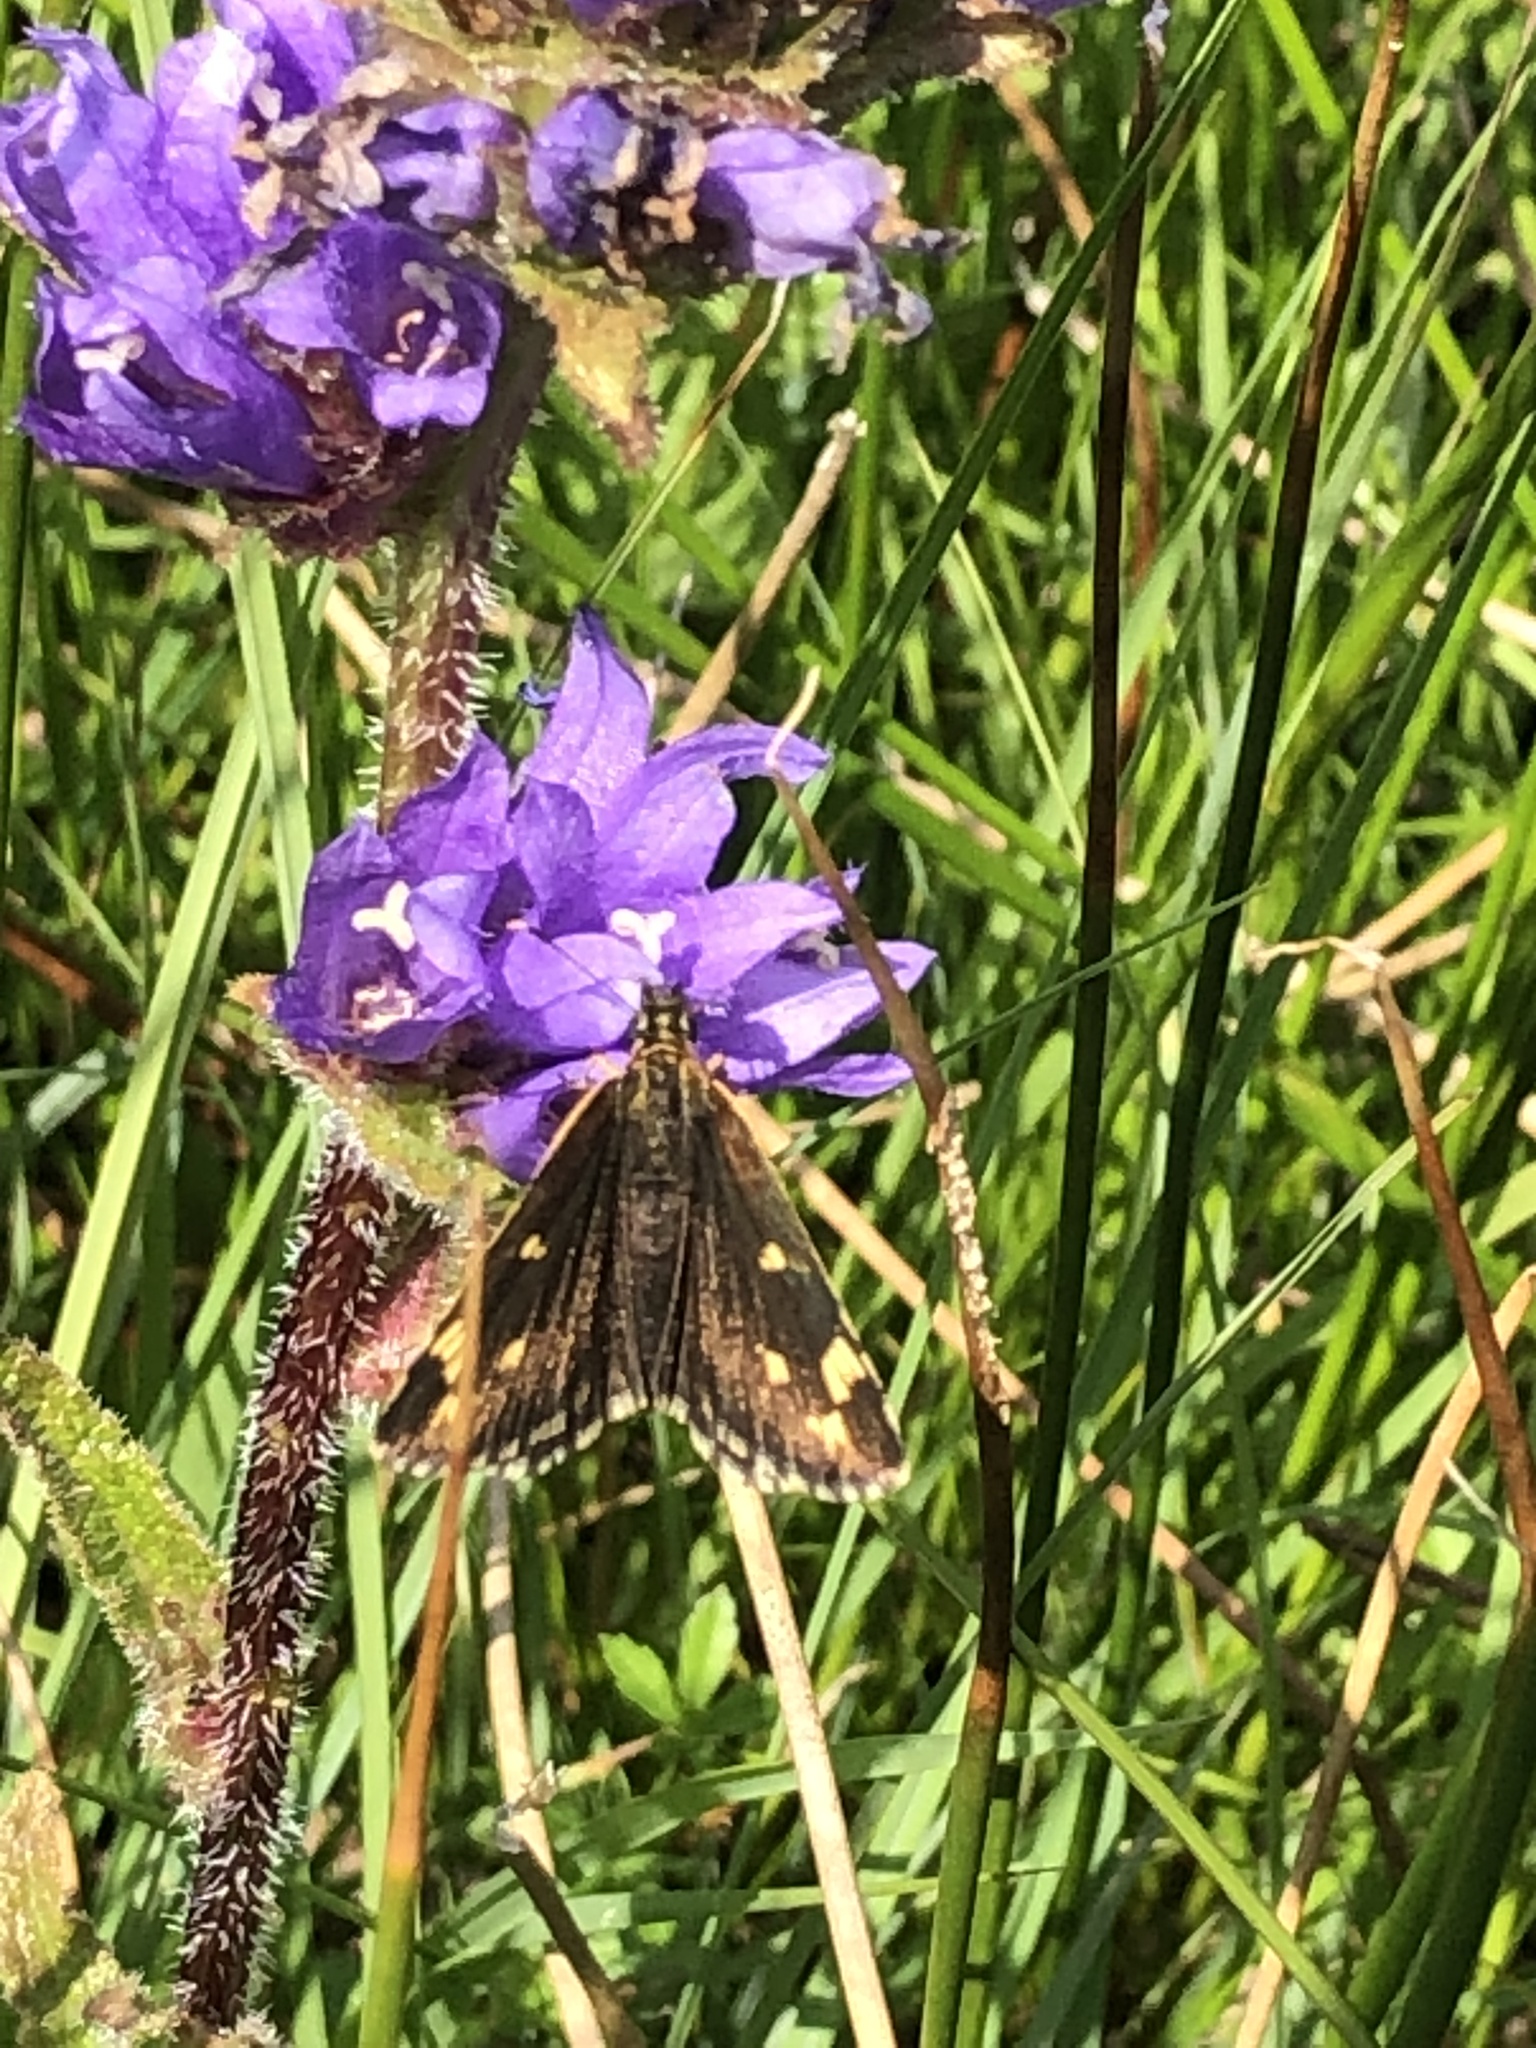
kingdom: Animalia
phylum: Arthropoda
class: Insecta
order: Lepidoptera
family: Hesperiidae
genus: Heteropterus
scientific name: Heteropterus morpheus
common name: Large chequered skipper
